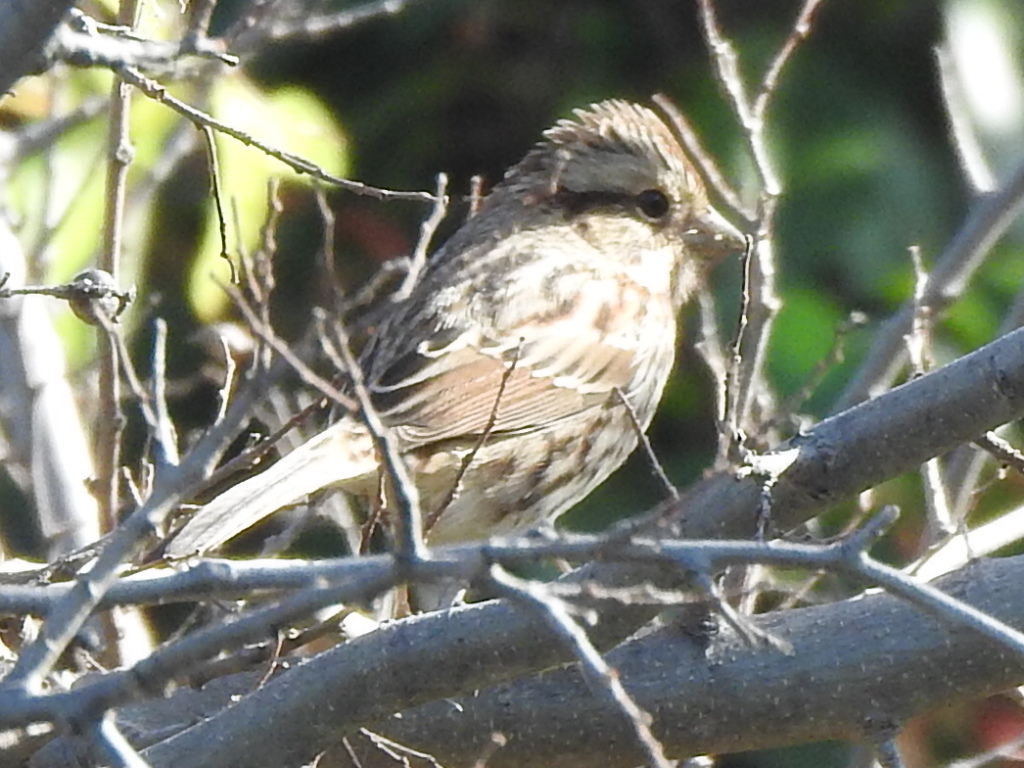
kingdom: Animalia
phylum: Chordata
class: Aves
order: Passeriformes
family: Passerellidae
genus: Melospiza
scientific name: Melospiza melodia
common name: Song sparrow
